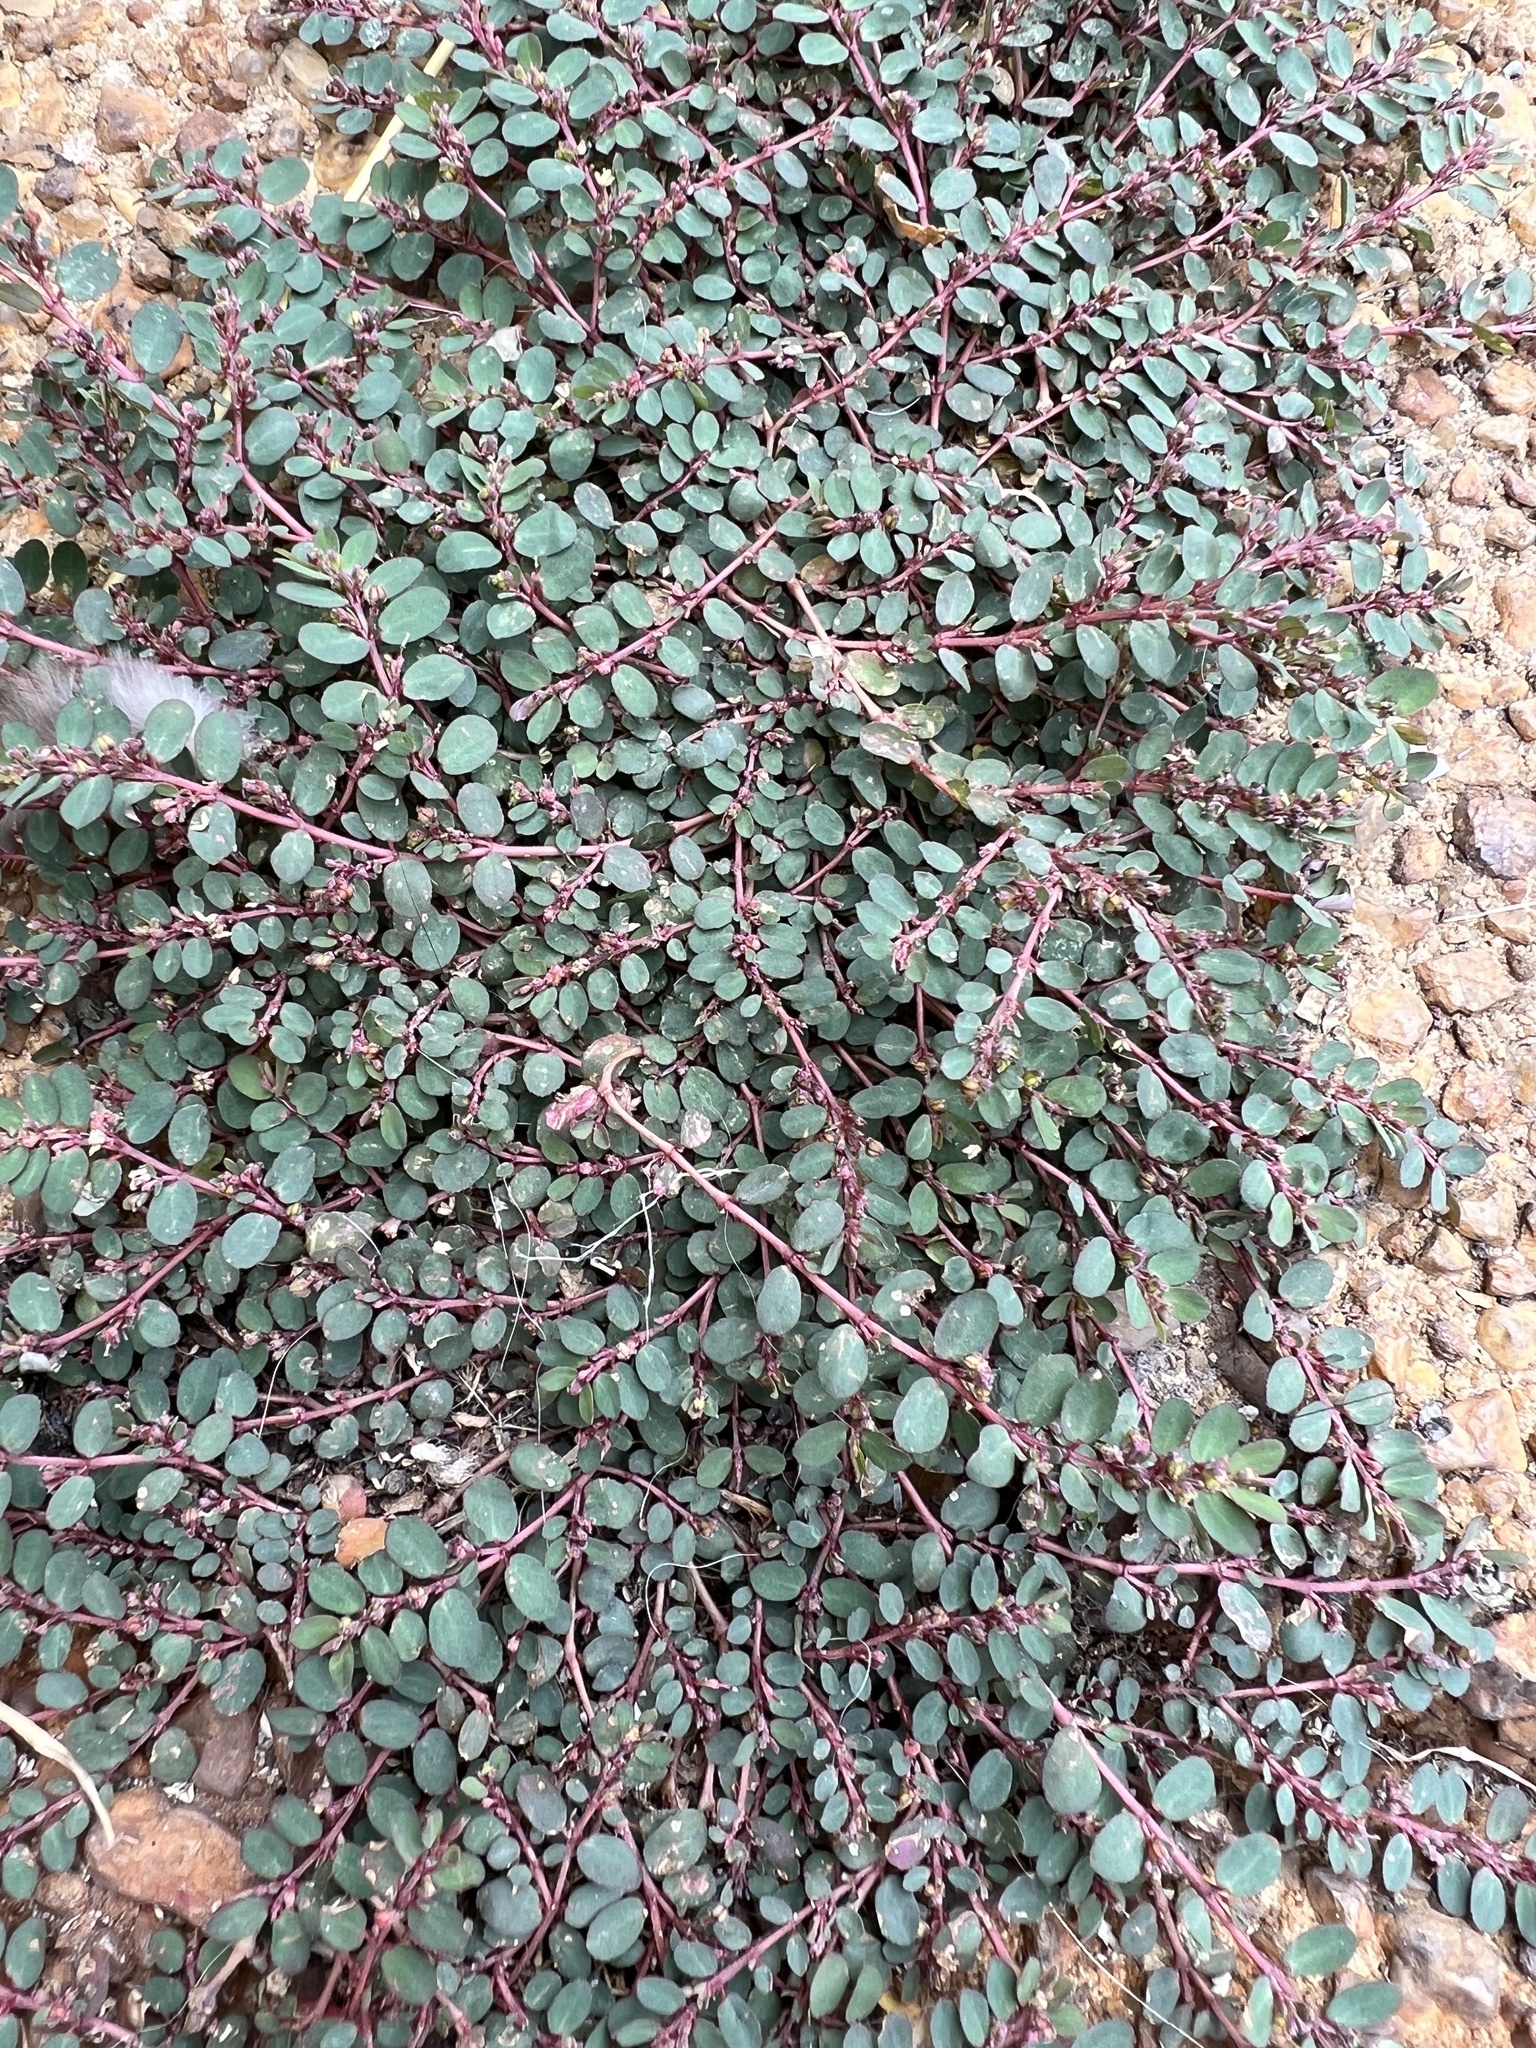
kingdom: Plantae
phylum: Tracheophyta
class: Magnoliopsida
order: Malpighiales
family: Euphorbiaceae
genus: Euphorbia
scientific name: Euphorbia prostrata
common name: Prostrate sandmat
